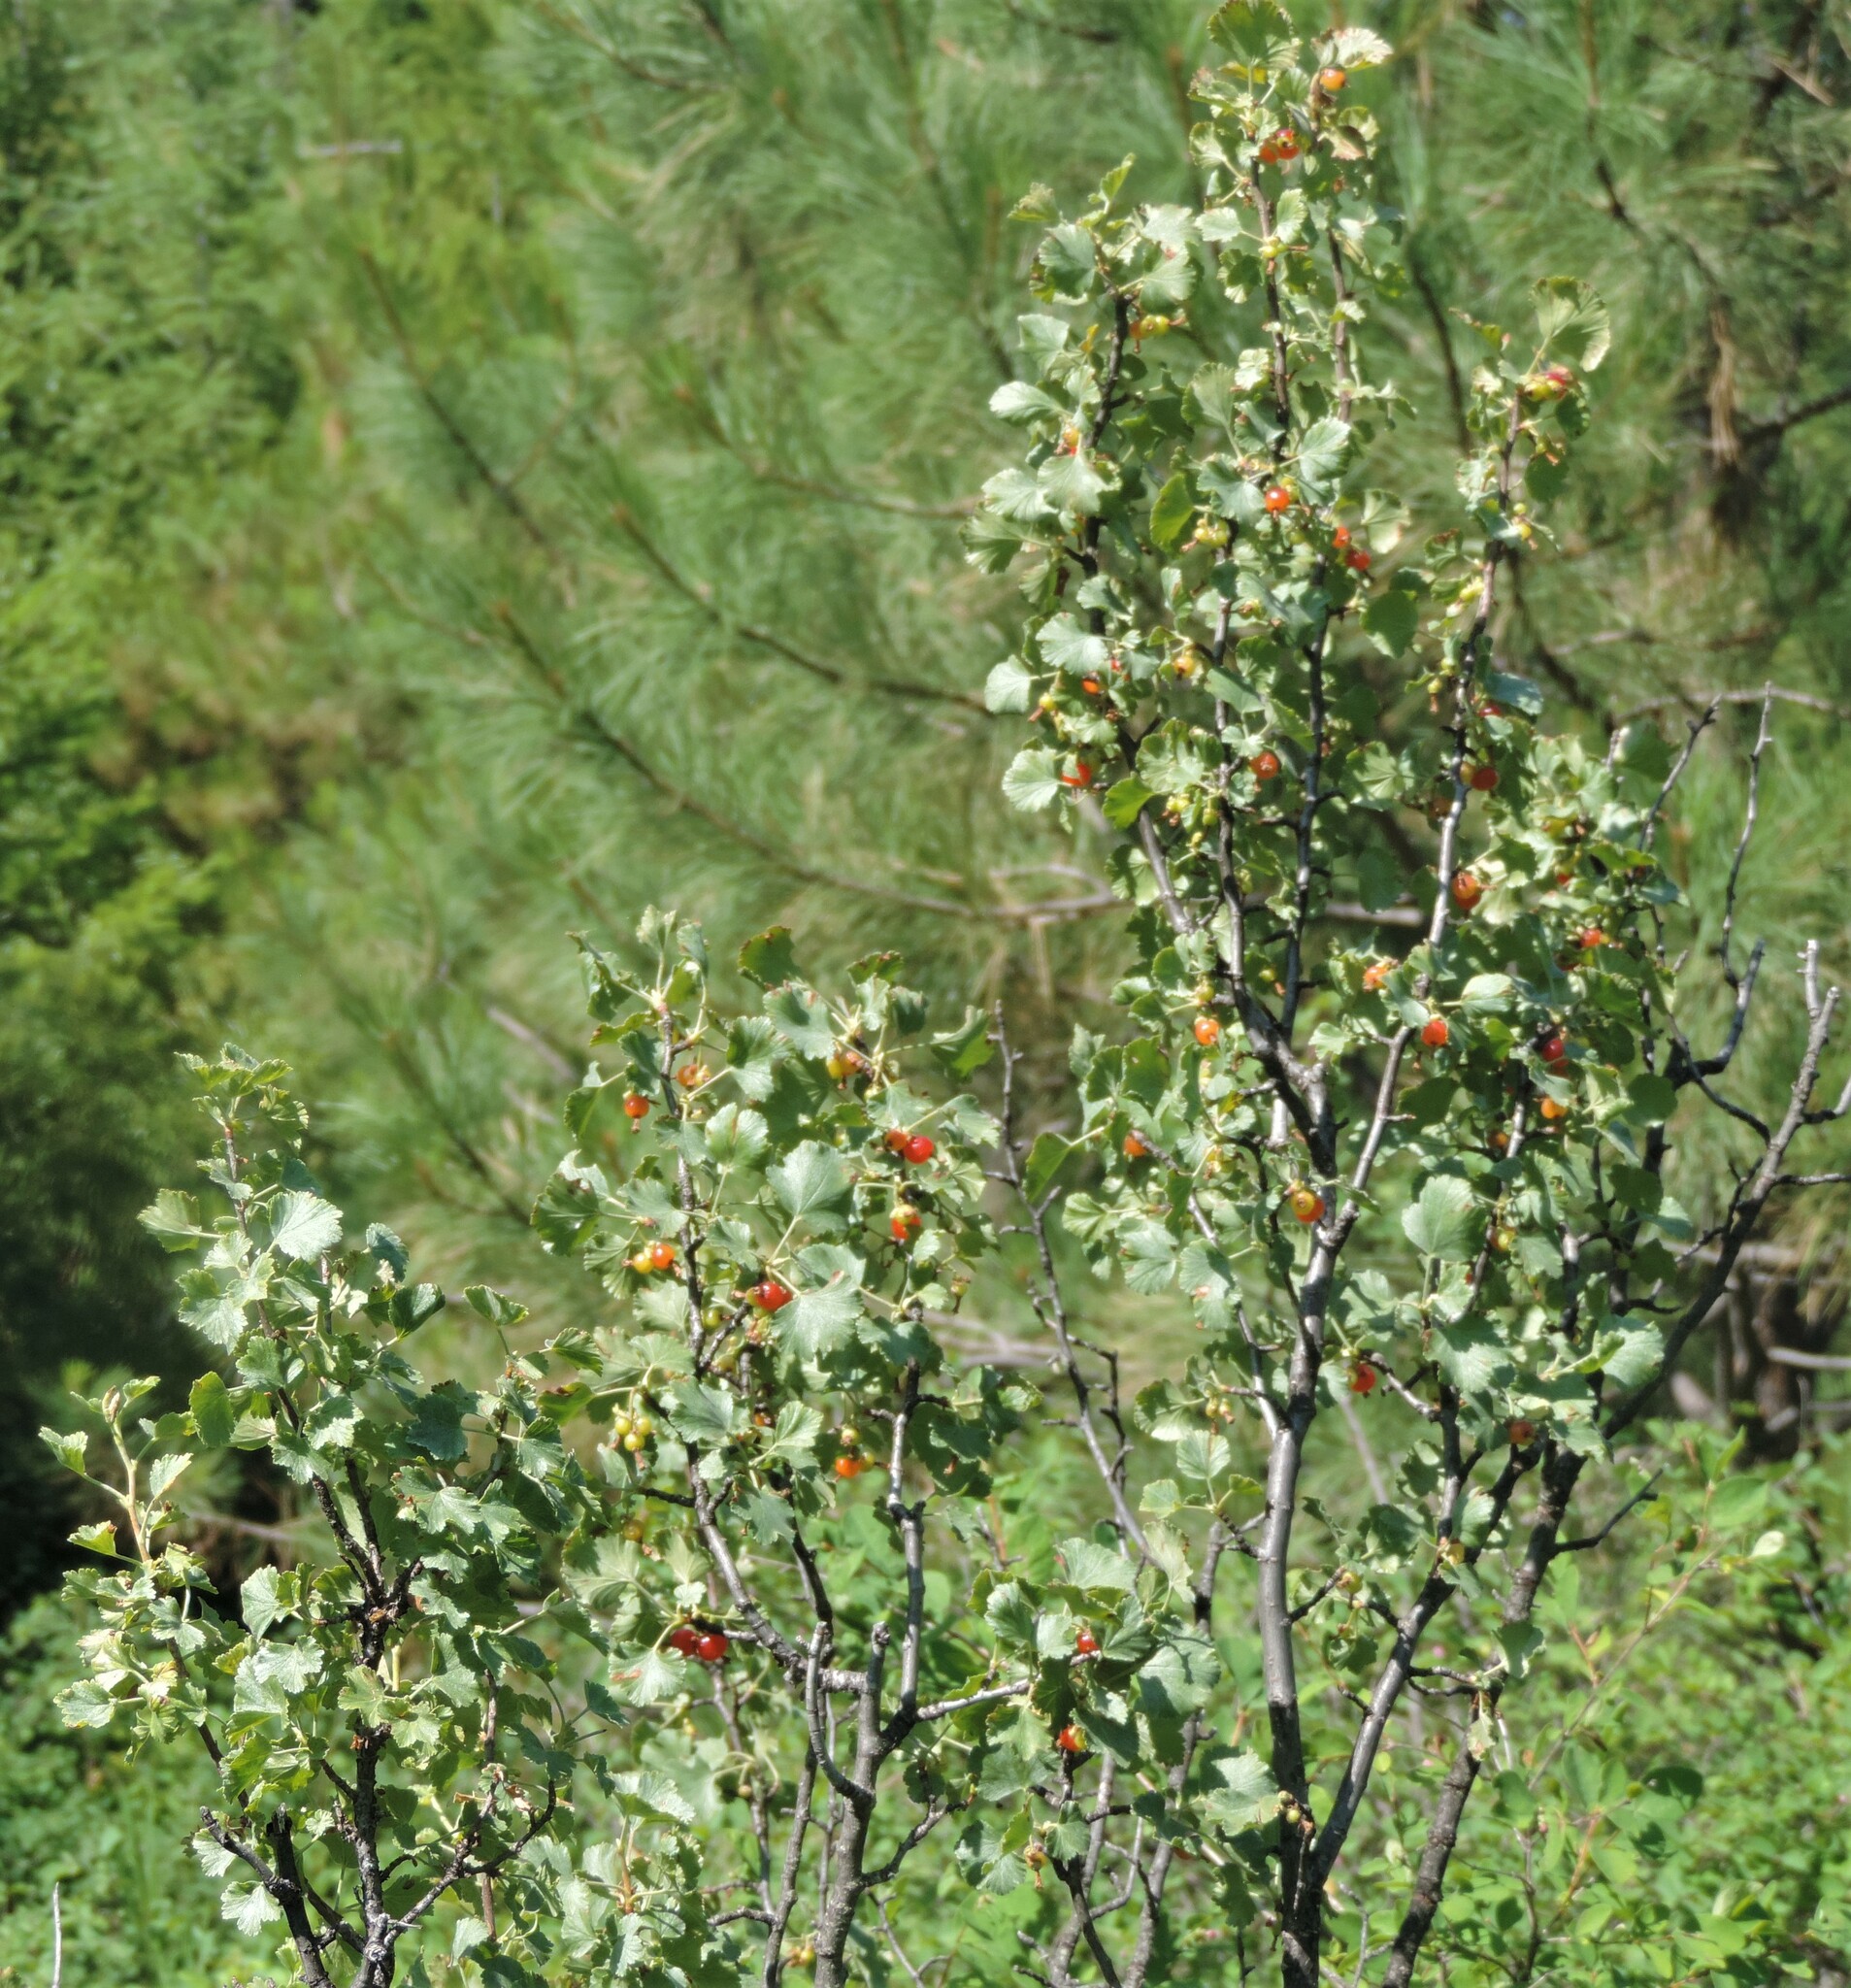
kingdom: Plantae
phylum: Tracheophyta
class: Magnoliopsida
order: Saxifragales
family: Grossulariaceae
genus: Ribes
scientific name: Ribes cereum
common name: Wax currant
